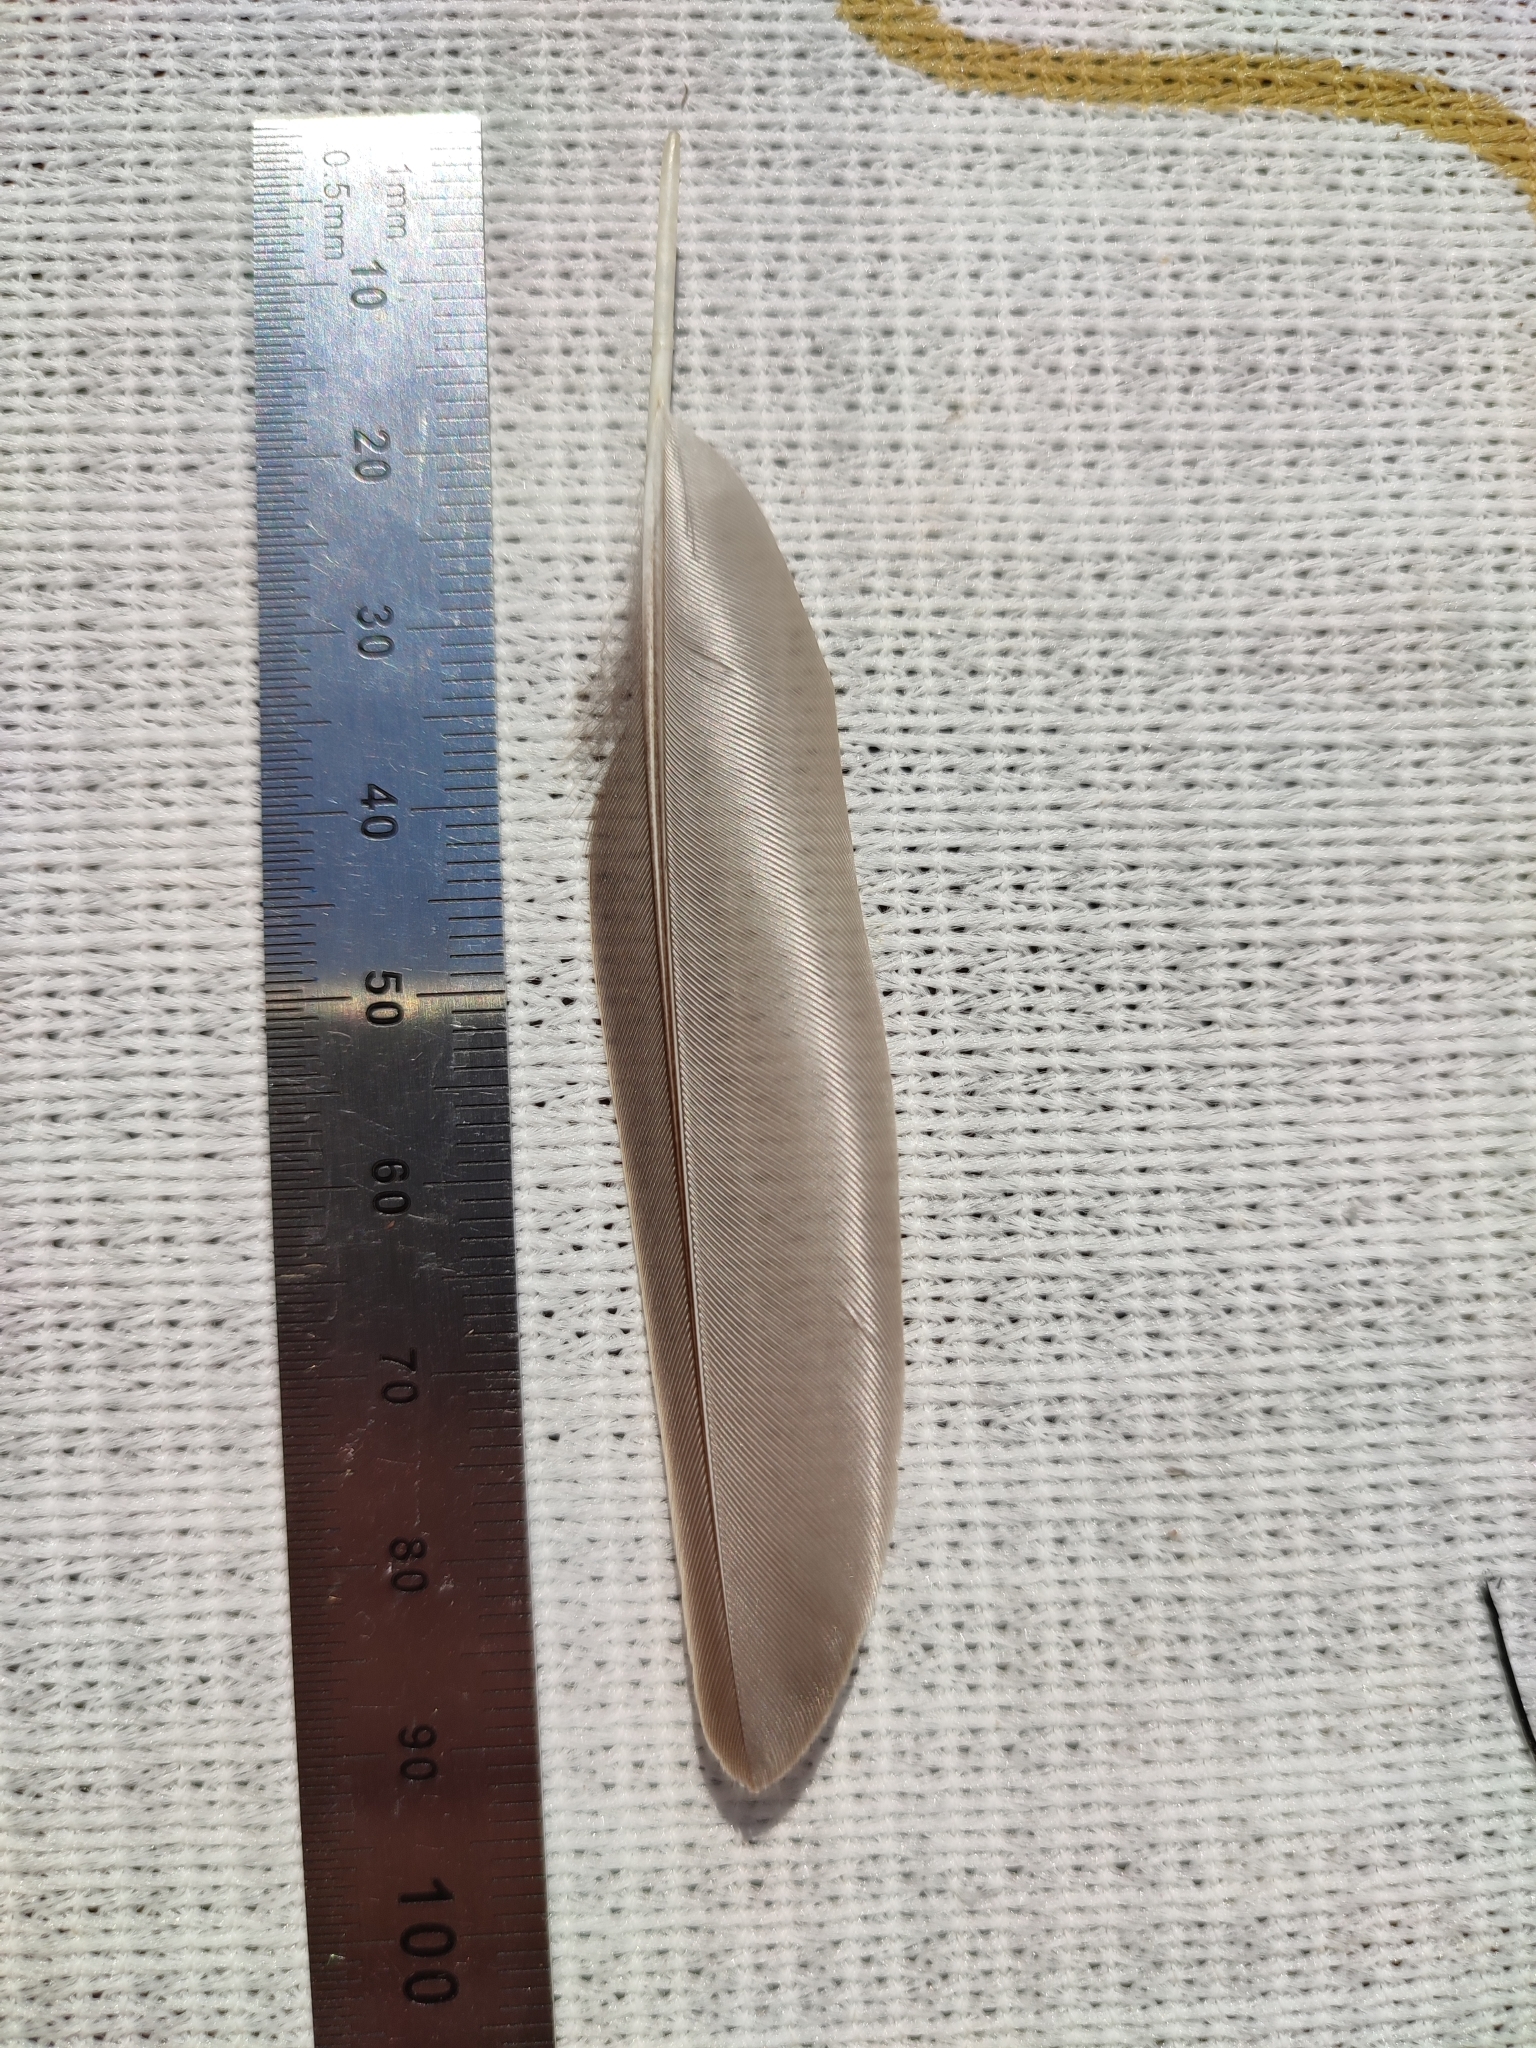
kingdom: Animalia
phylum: Chordata
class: Aves
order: Passeriformes
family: Sturnidae
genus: Sturnus
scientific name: Sturnus vulgaris
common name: Common starling
